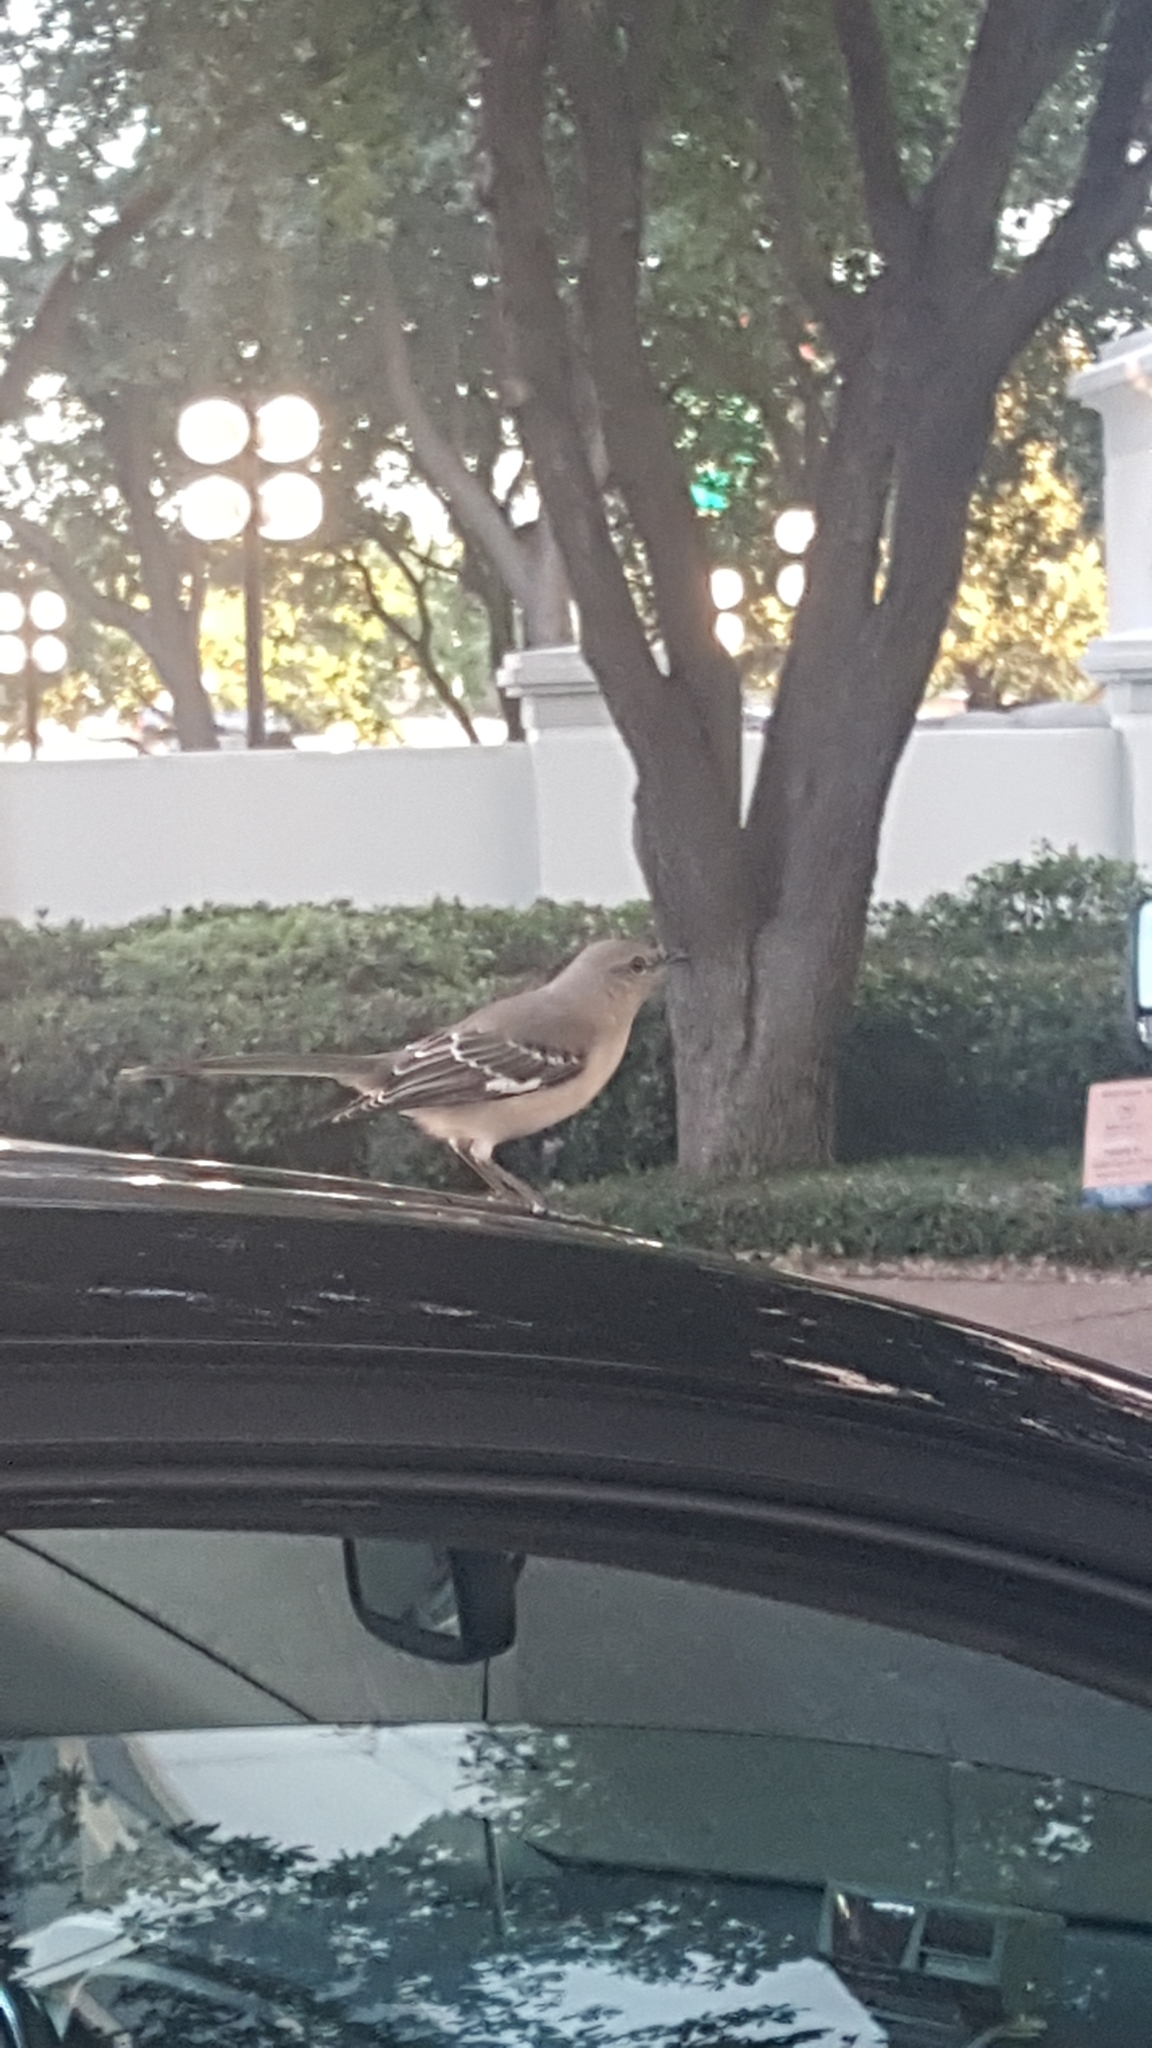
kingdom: Animalia
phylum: Chordata
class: Aves
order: Passeriformes
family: Mimidae
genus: Mimus
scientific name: Mimus polyglottos
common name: Northern mockingbird
